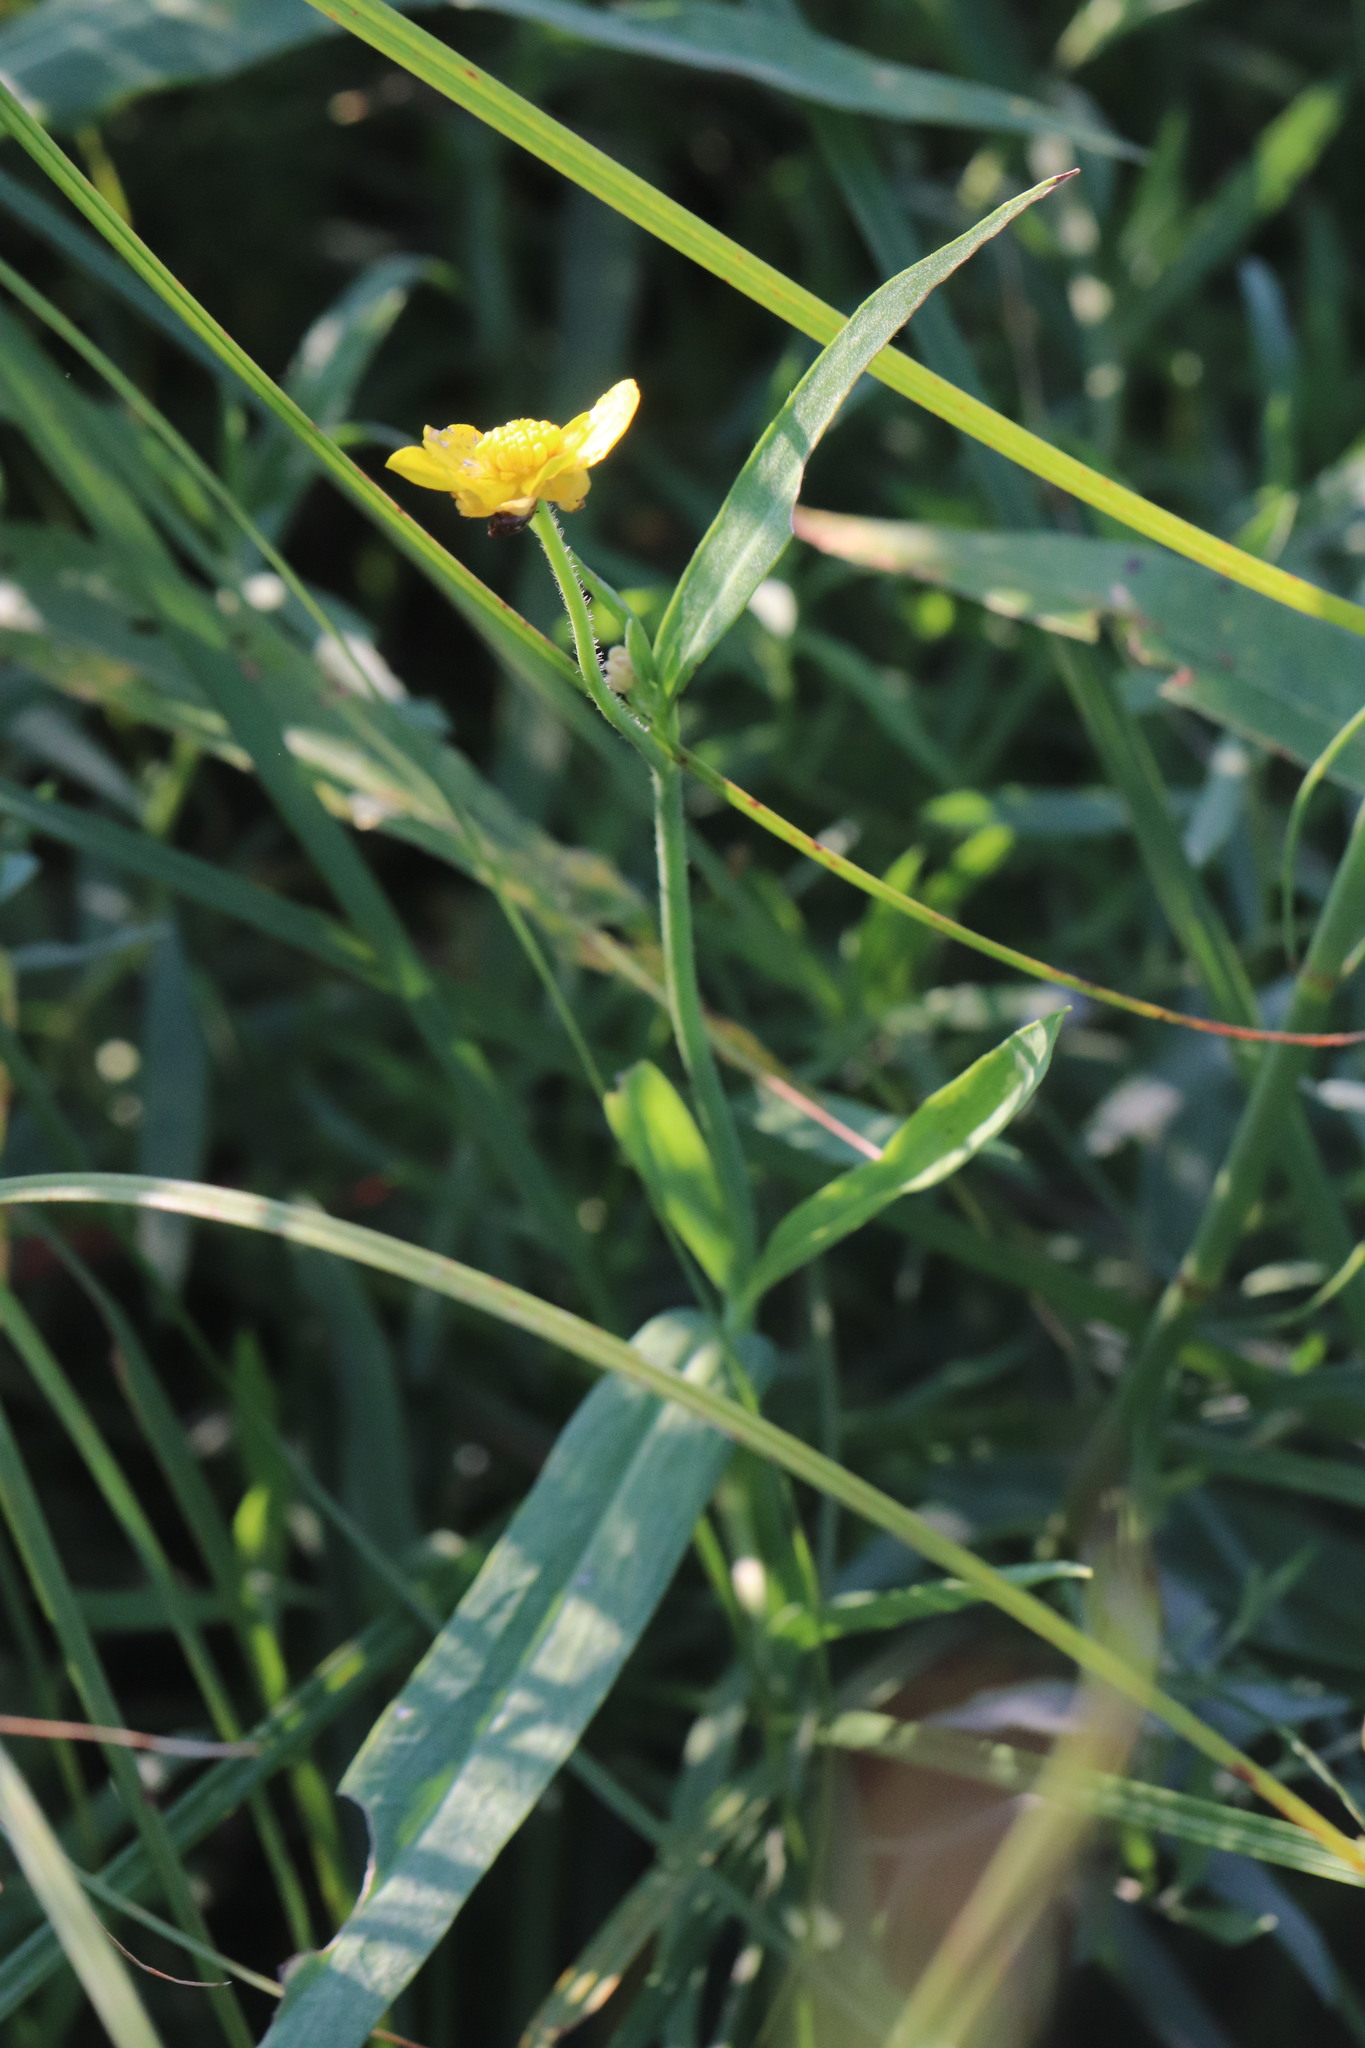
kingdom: Plantae
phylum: Tracheophyta
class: Magnoliopsida
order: Ranunculales
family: Ranunculaceae
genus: Ranunculus
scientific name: Ranunculus lingua
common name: Greater spearwort
